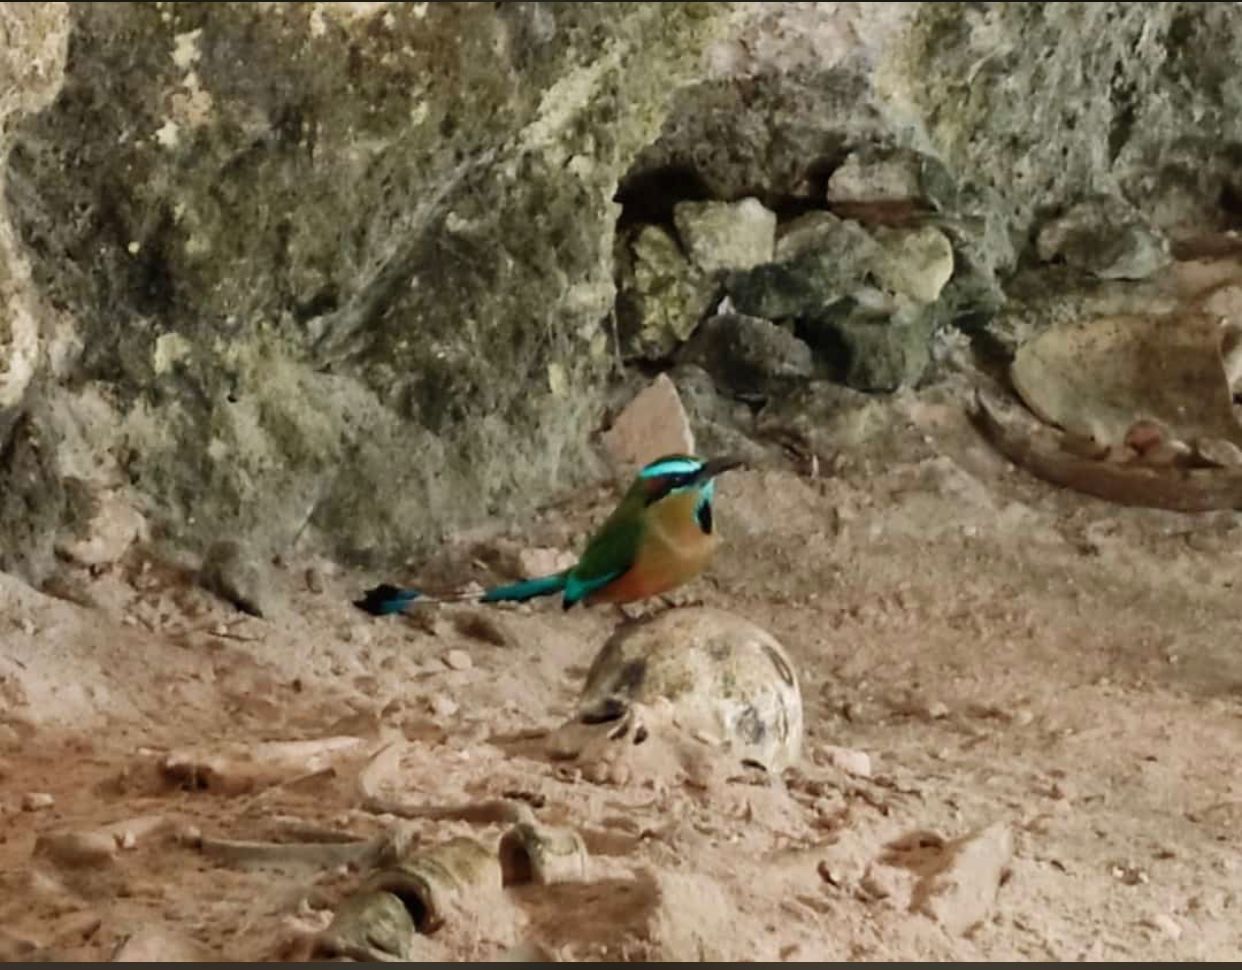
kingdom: Animalia
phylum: Chordata
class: Aves
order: Coraciiformes
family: Momotidae
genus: Eumomota
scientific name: Eumomota superciliosa
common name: Turquoise-browed motmot
